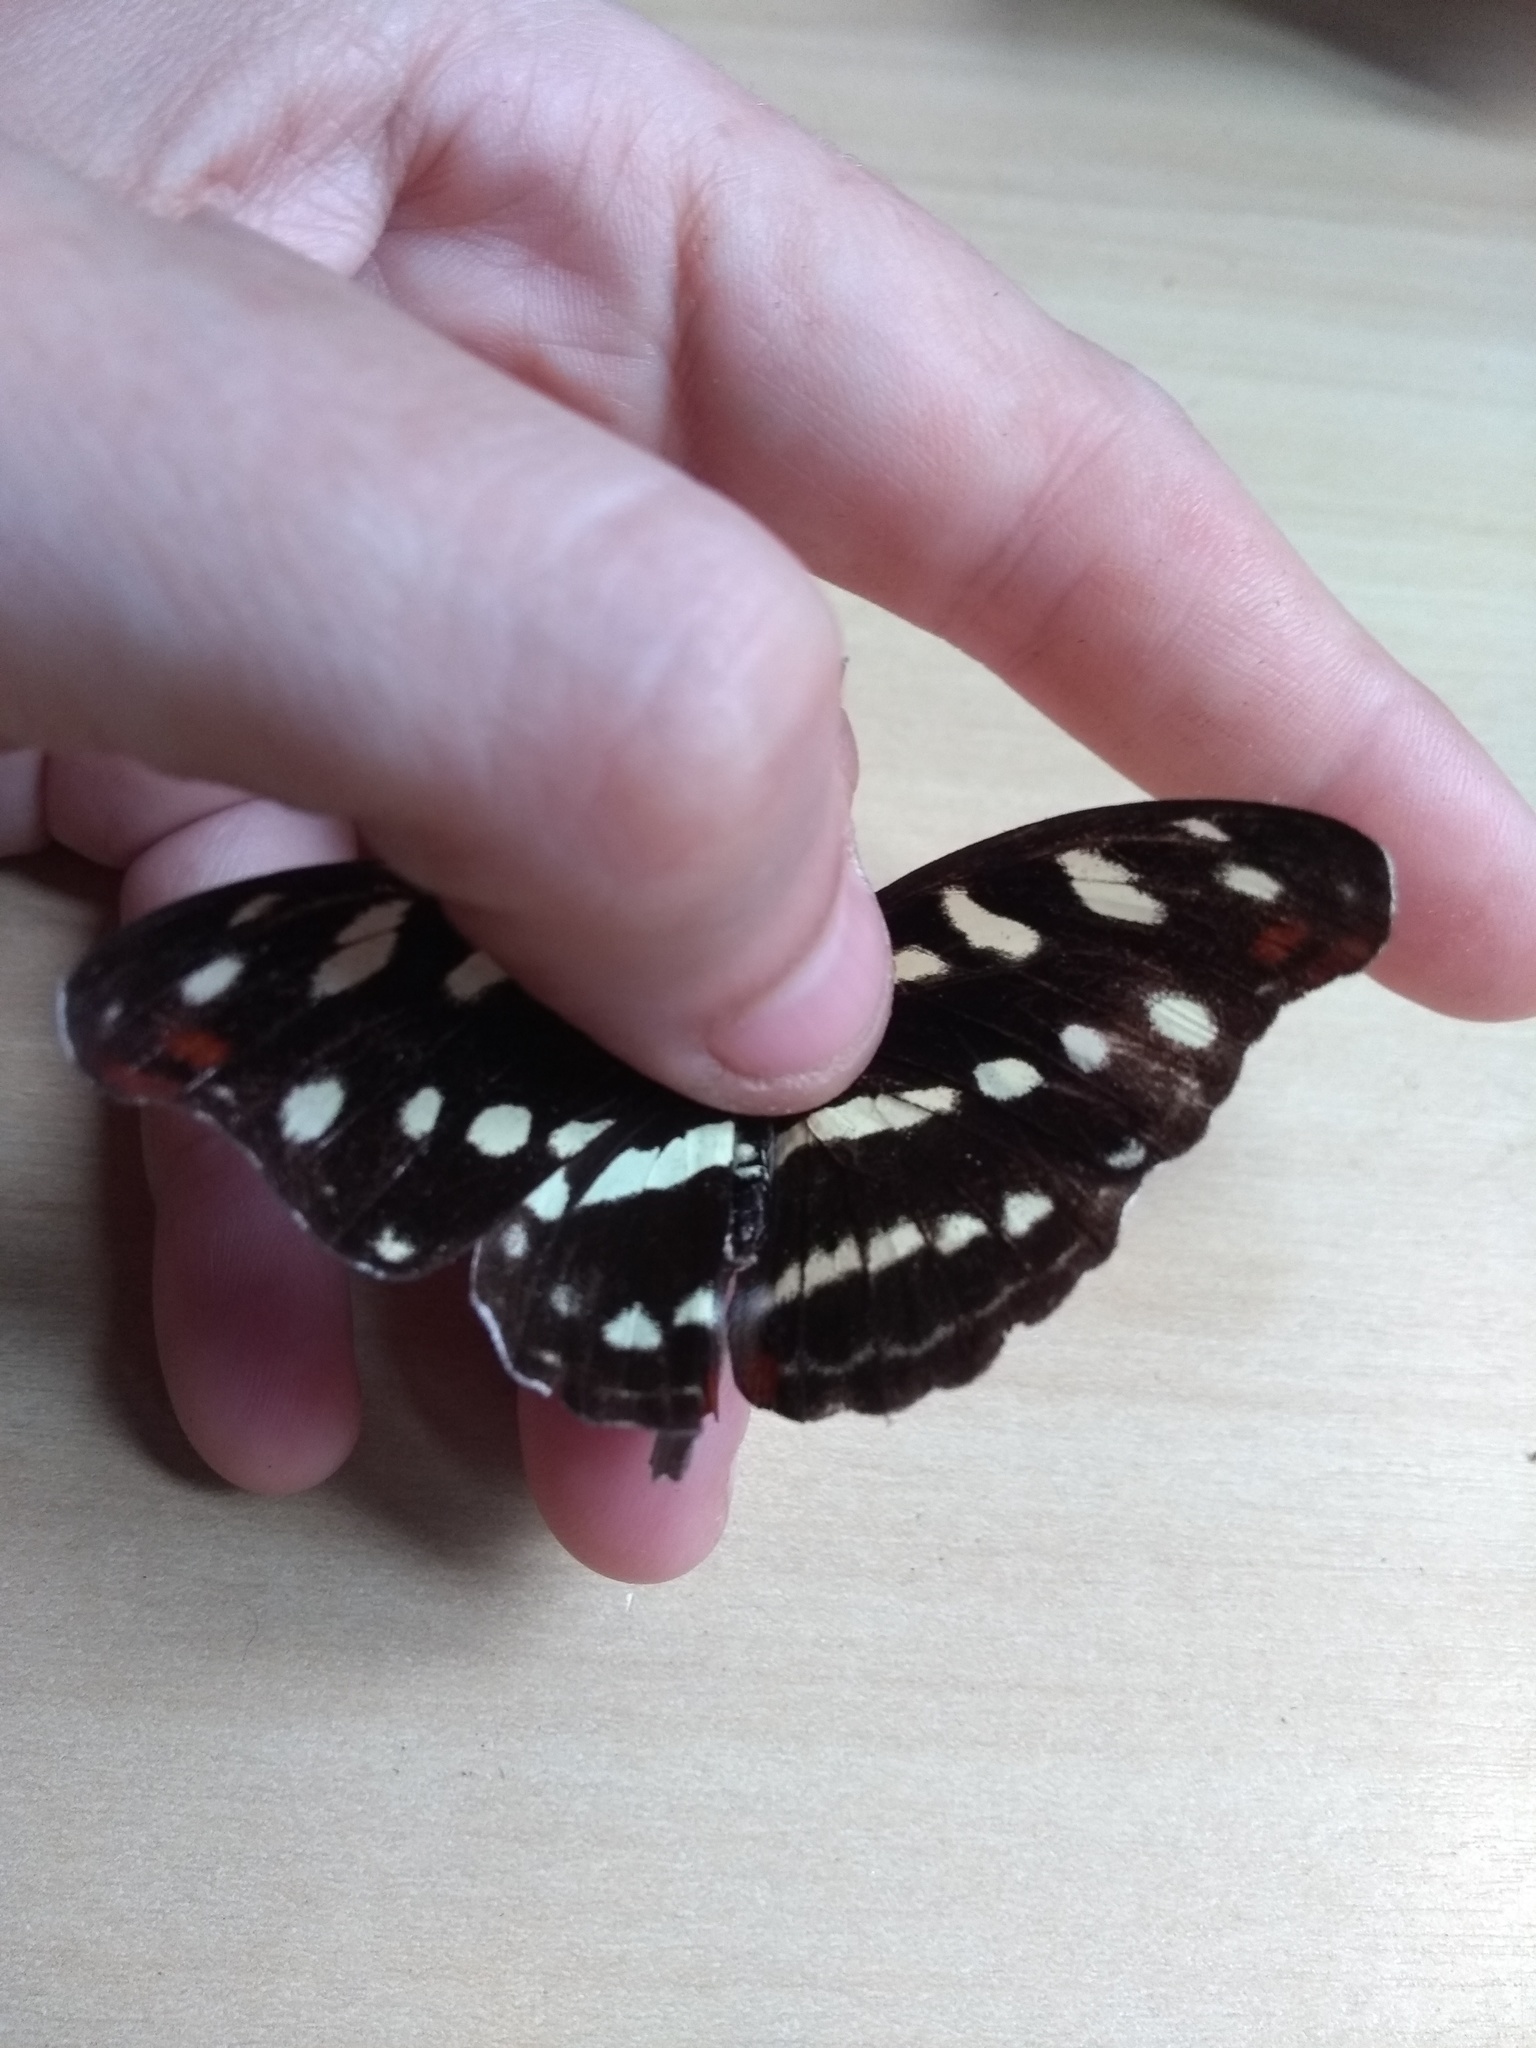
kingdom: Animalia
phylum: Arthropoda
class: Insecta
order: Lepidoptera
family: Nymphalidae
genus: Myscelia
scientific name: Myscelia orsis
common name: Orsis bluewing
